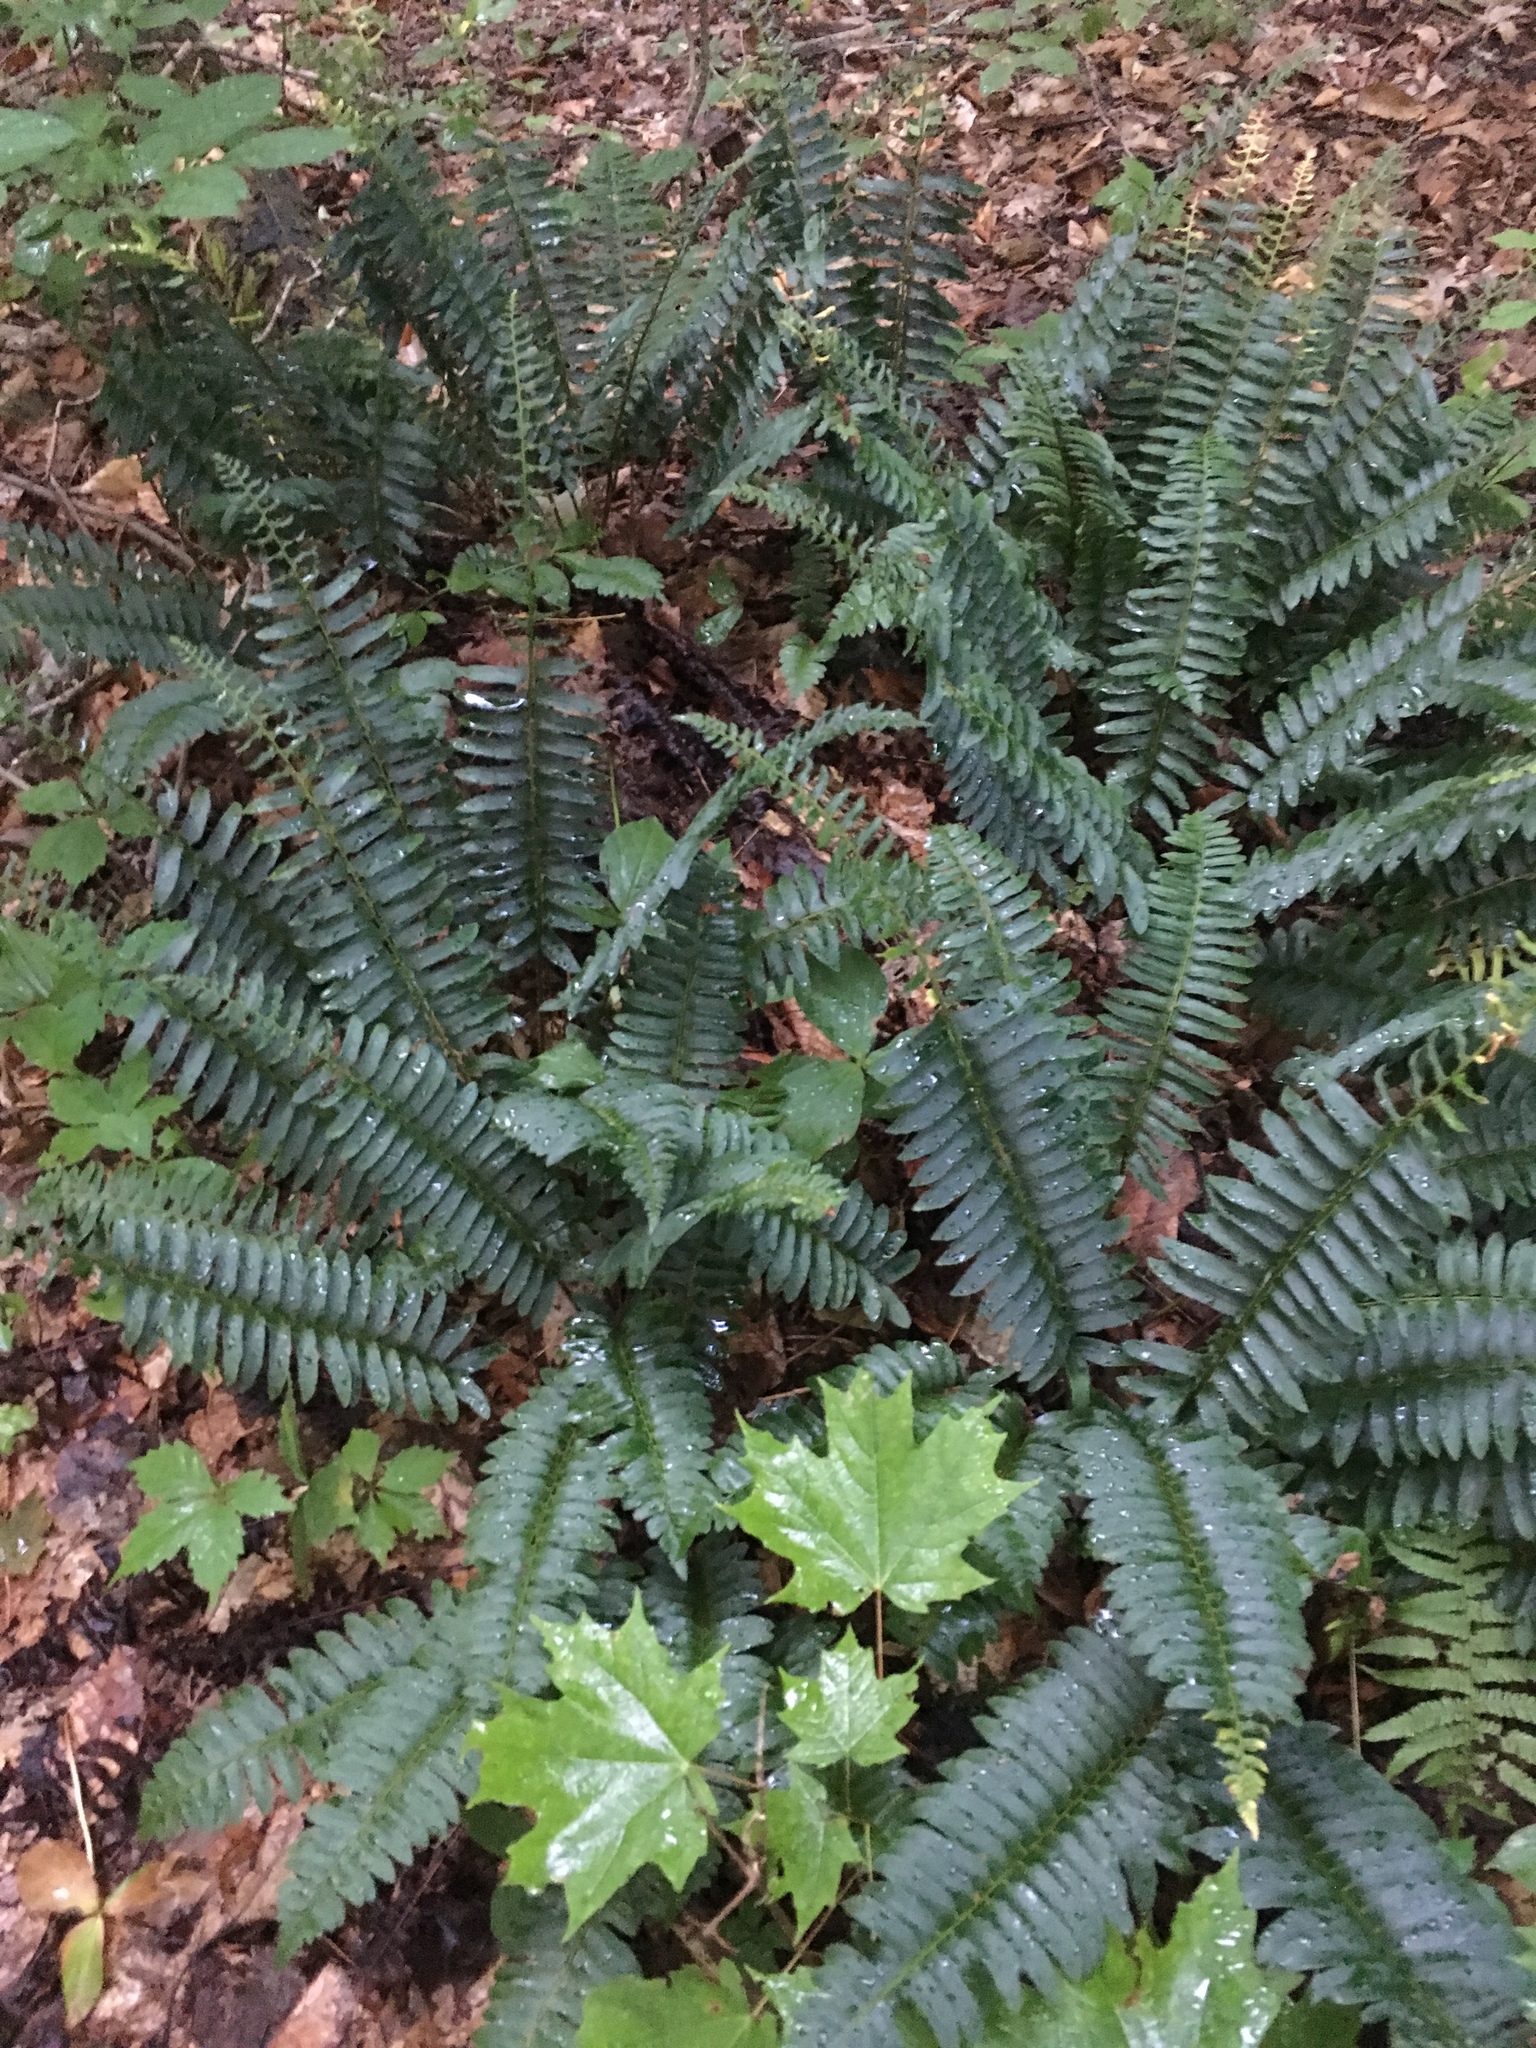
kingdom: Plantae
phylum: Tracheophyta
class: Polypodiopsida
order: Polypodiales
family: Dryopteridaceae
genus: Polystichum
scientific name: Polystichum acrostichoides
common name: Christmas fern
